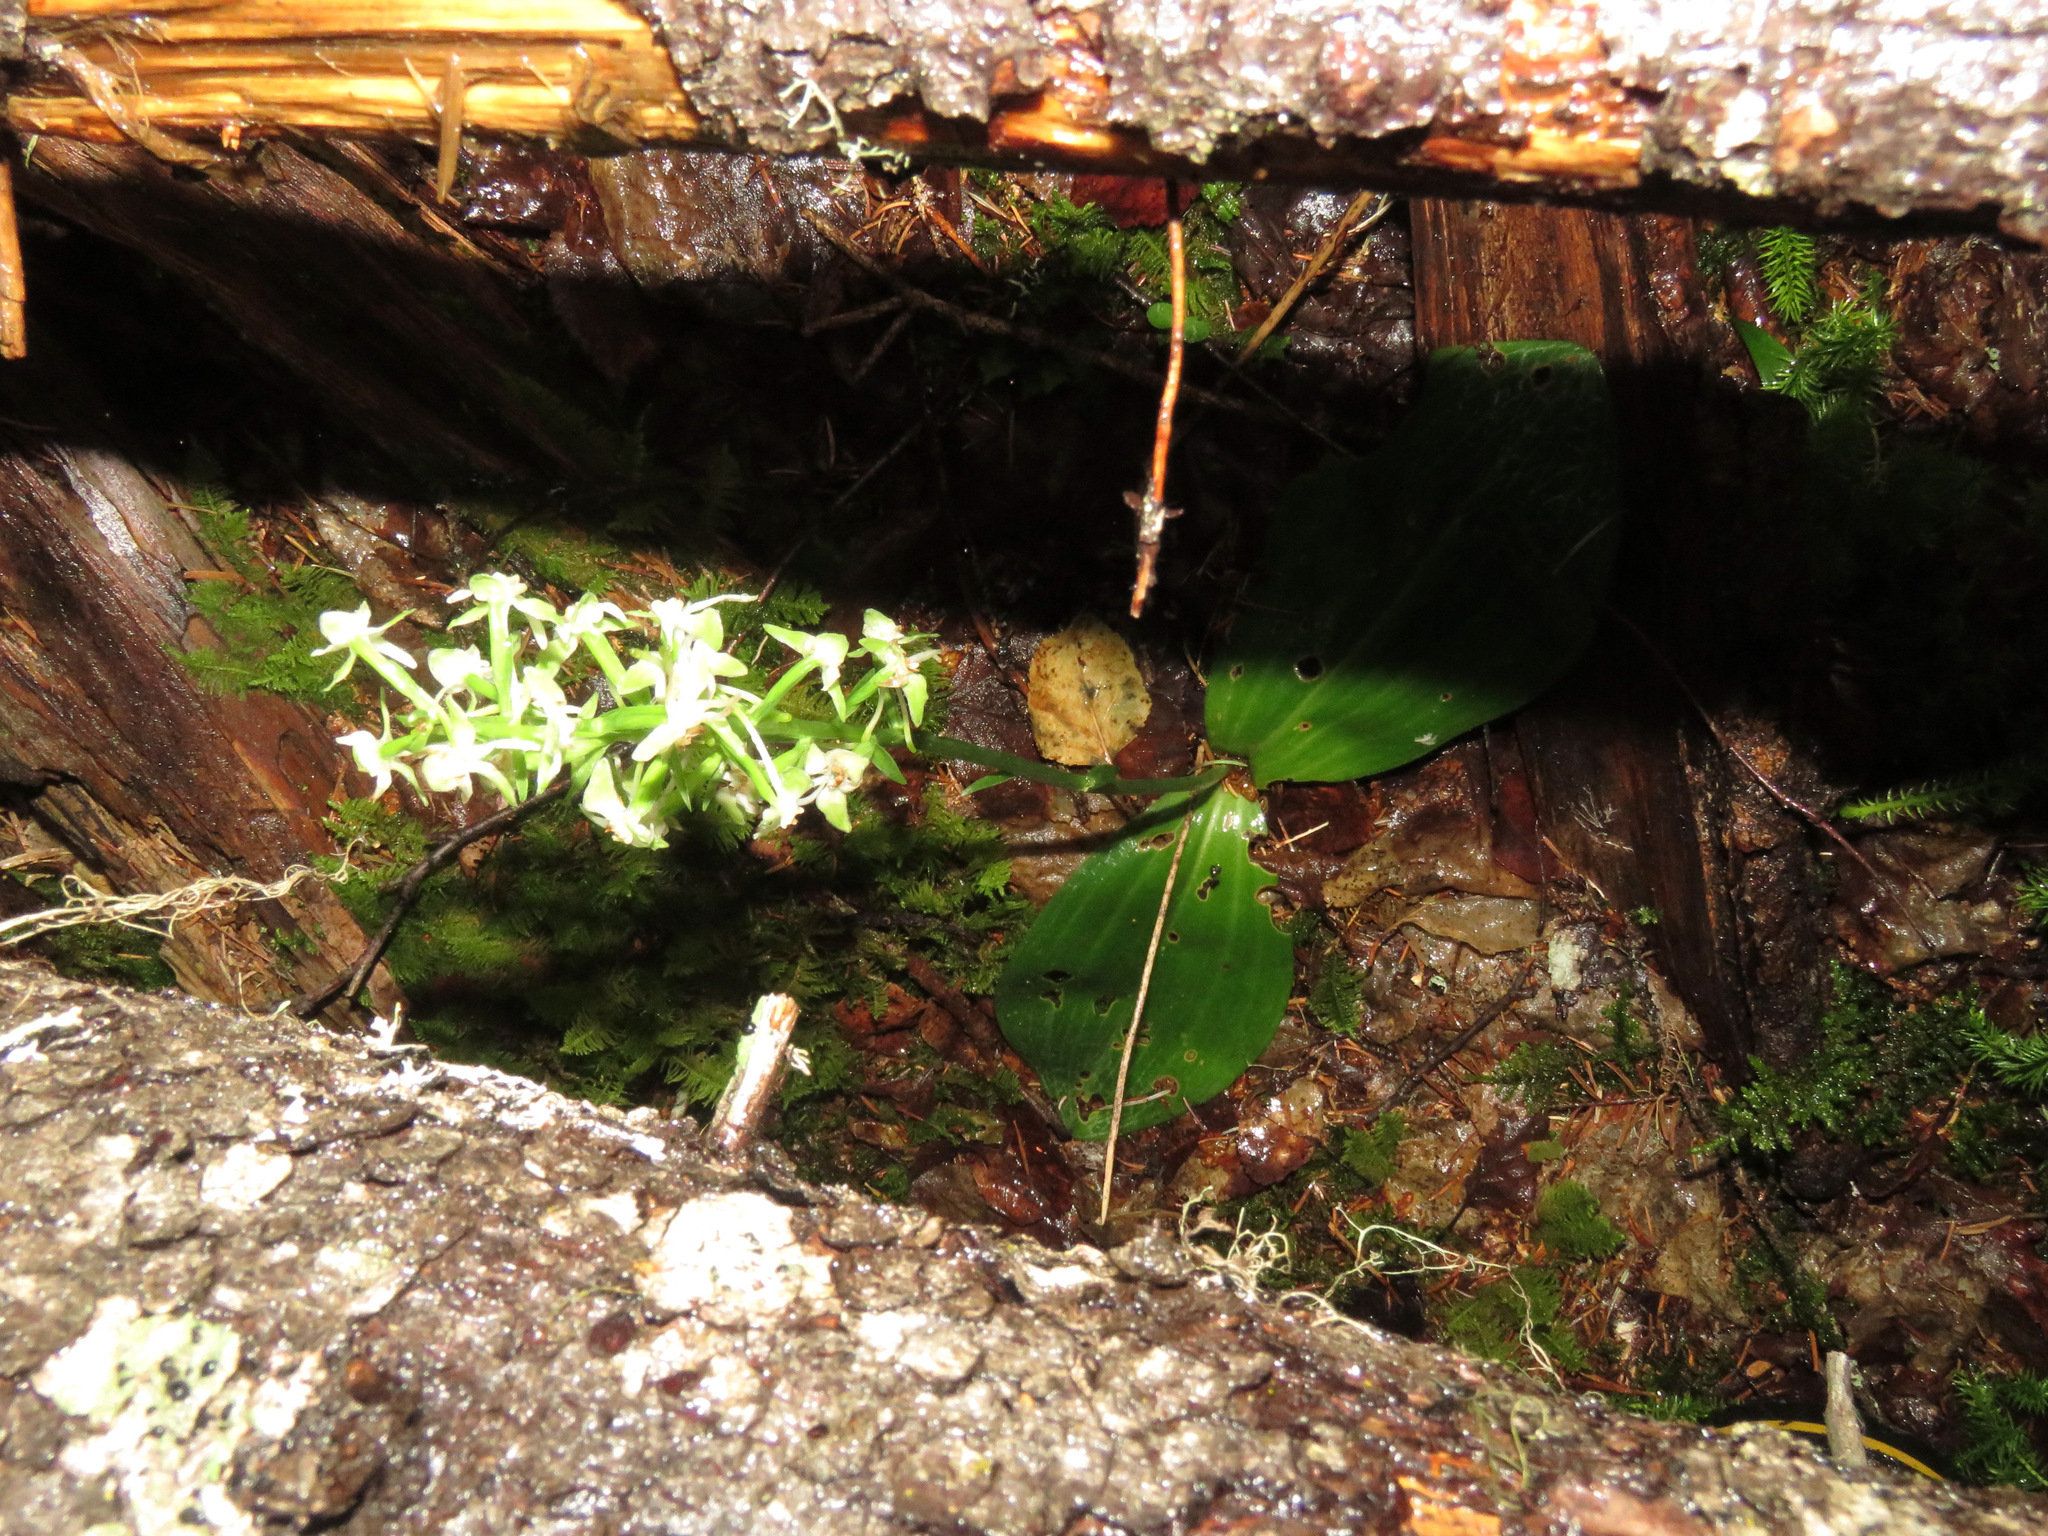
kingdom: Plantae
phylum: Tracheophyta
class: Liliopsida
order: Asparagales
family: Orchidaceae
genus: Platanthera
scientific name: Platanthera orbiculata
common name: Large round-leaved orchid
